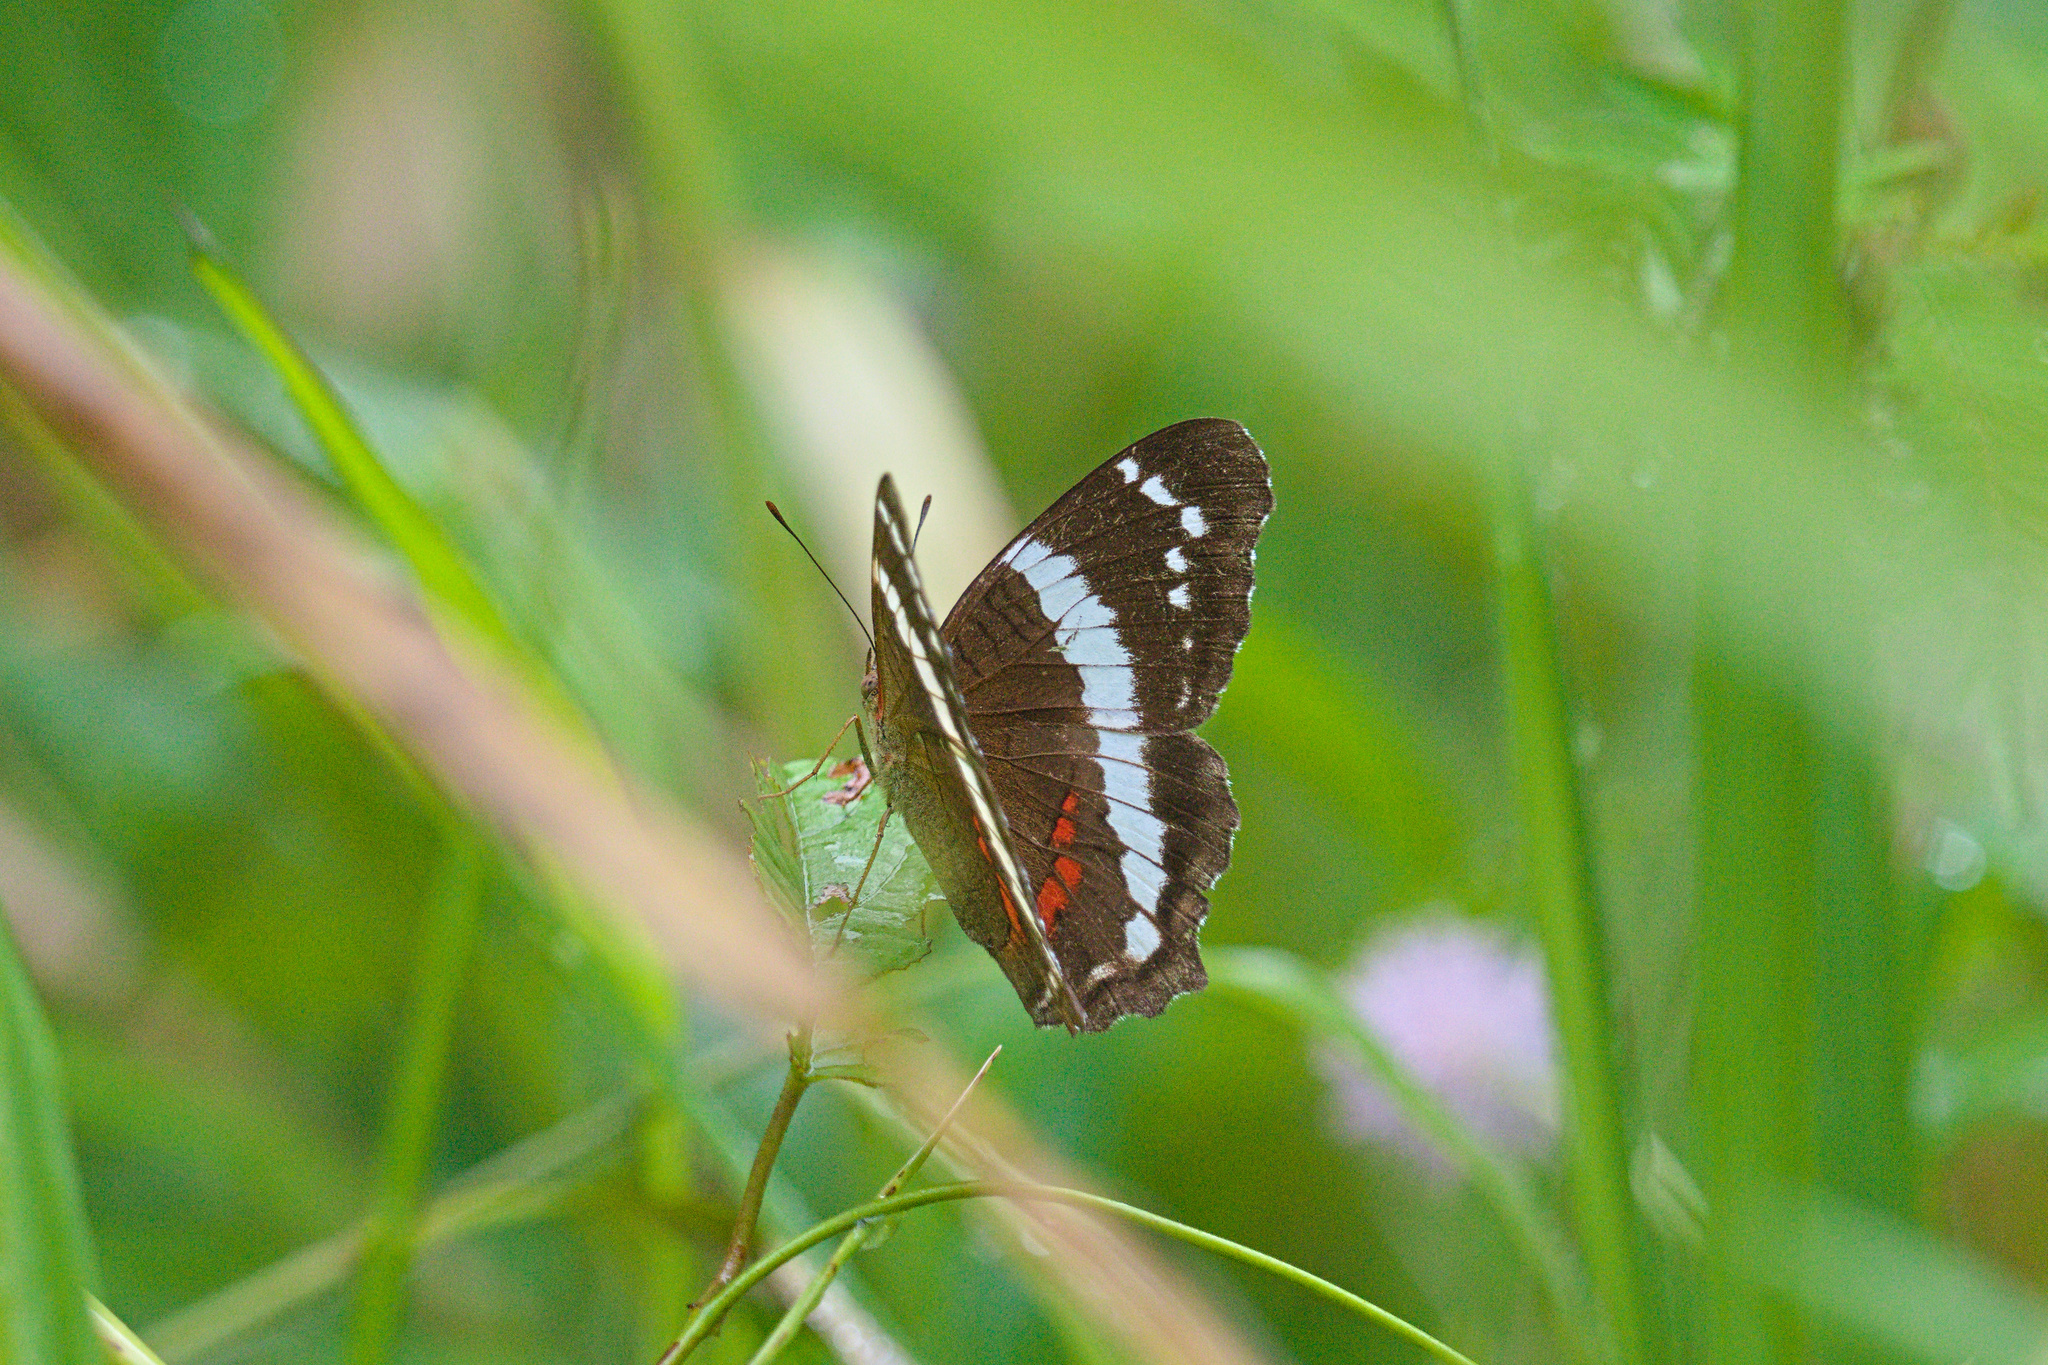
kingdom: Animalia
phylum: Arthropoda
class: Insecta
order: Lepidoptera
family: Nymphalidae
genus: Anartia
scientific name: Anartia fatima
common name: Banded peacock
